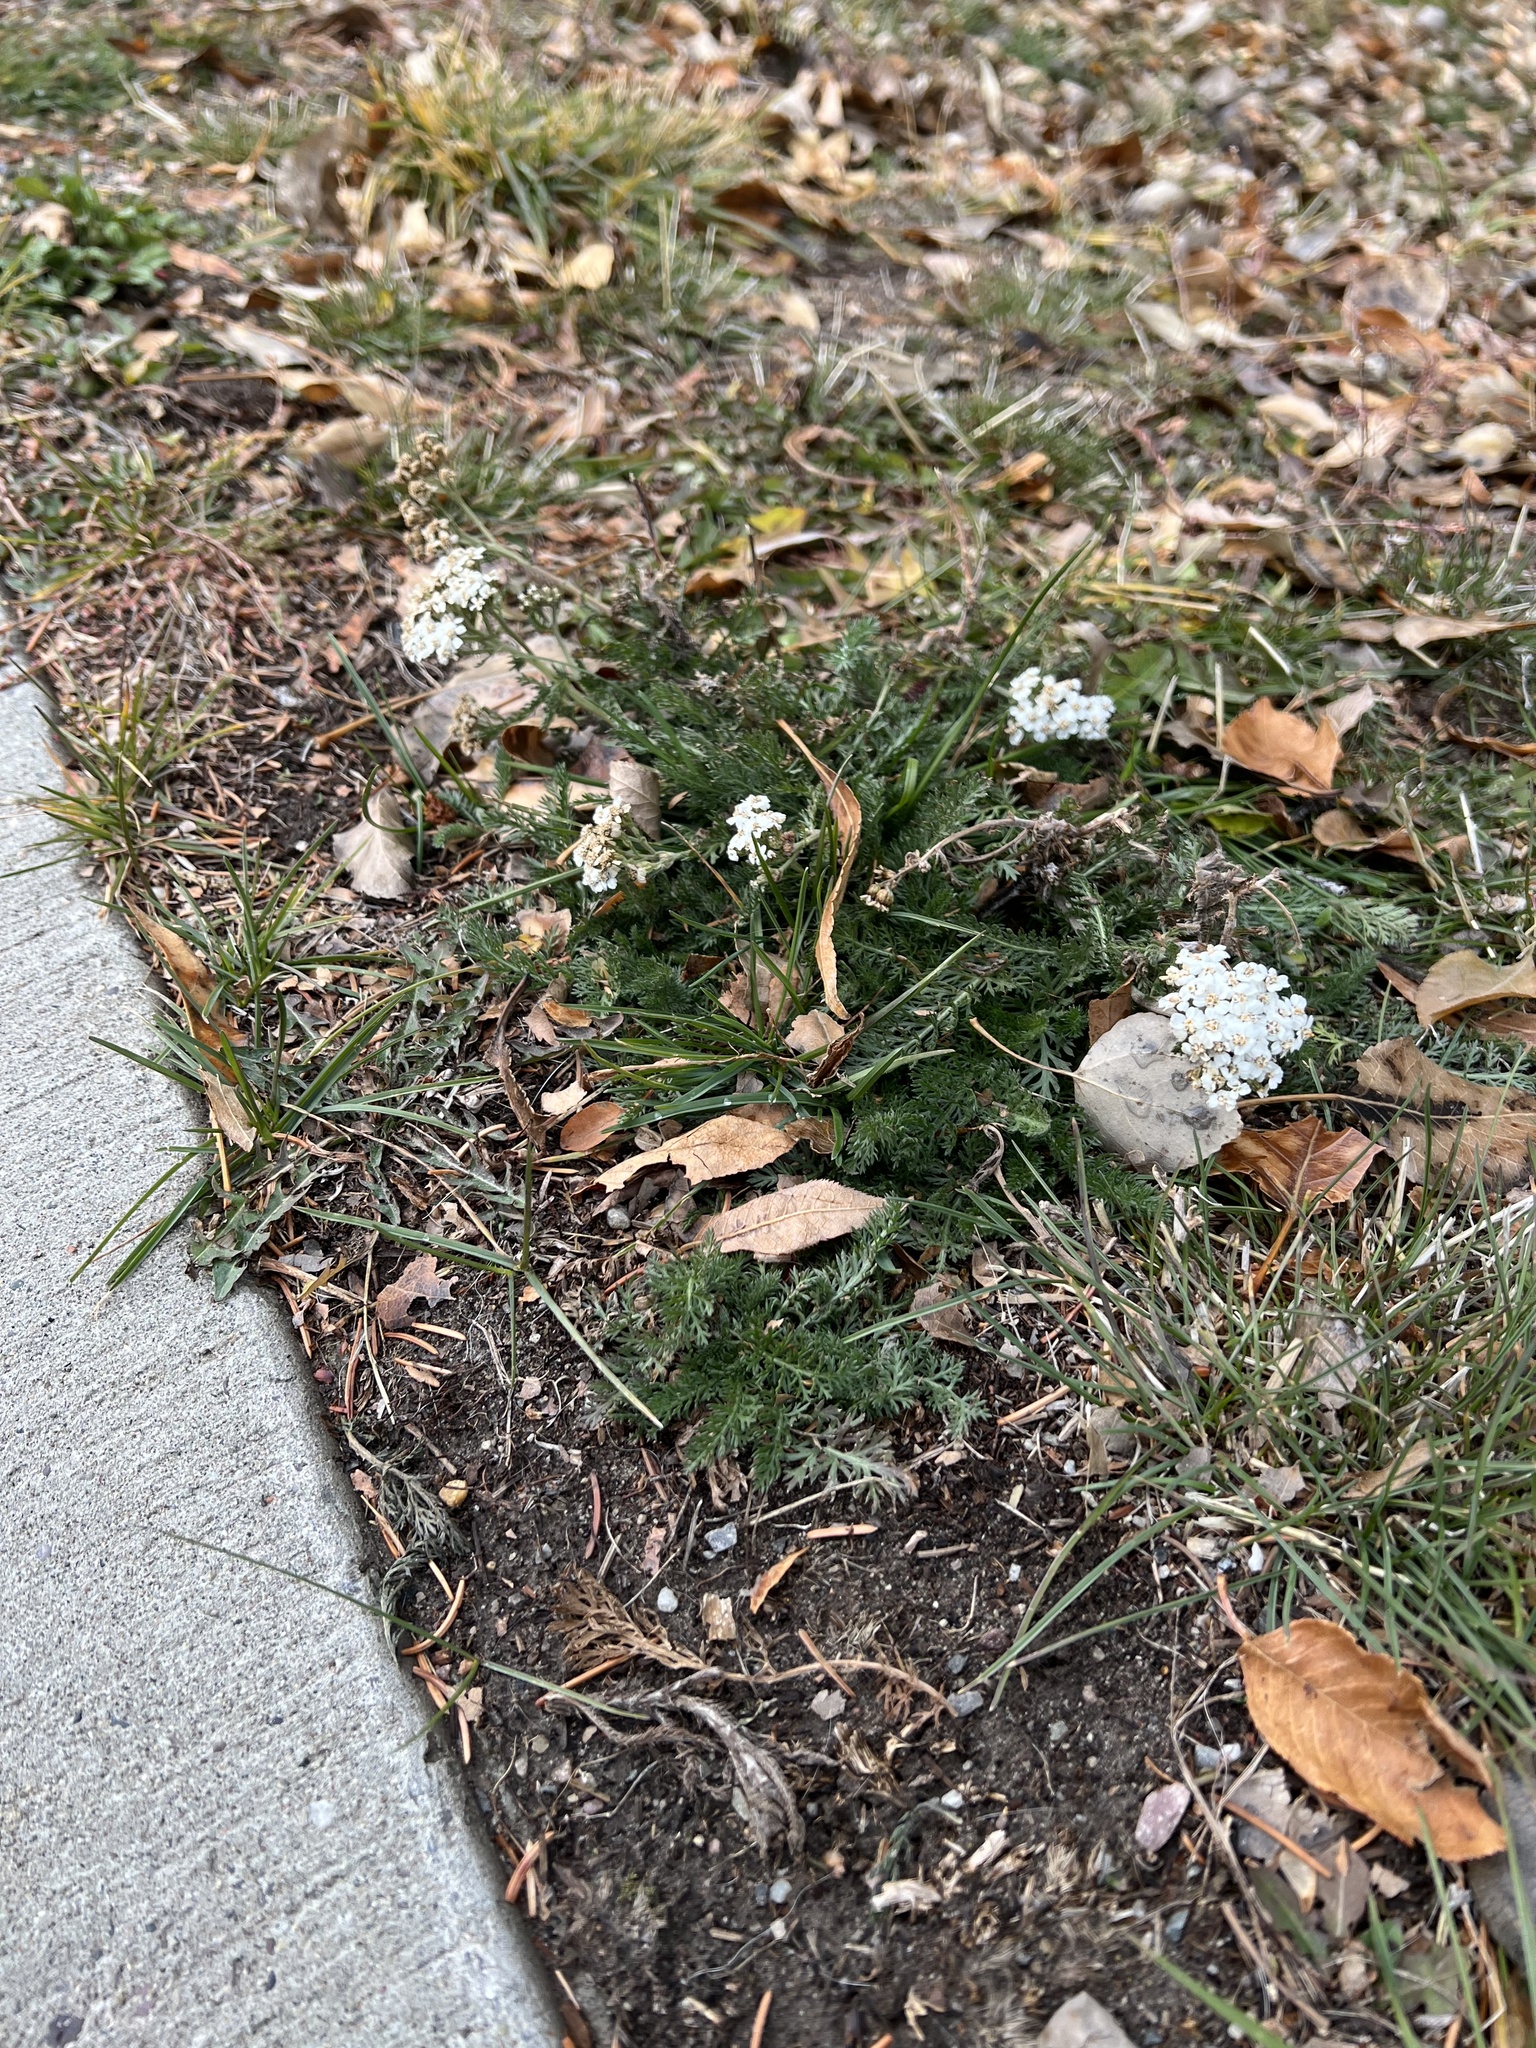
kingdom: Plantae
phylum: Tracheophyta
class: Magnoliopsida
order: Asterales
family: Asteraceae
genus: Achillea
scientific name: Achillea millefolium
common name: Yarrow
